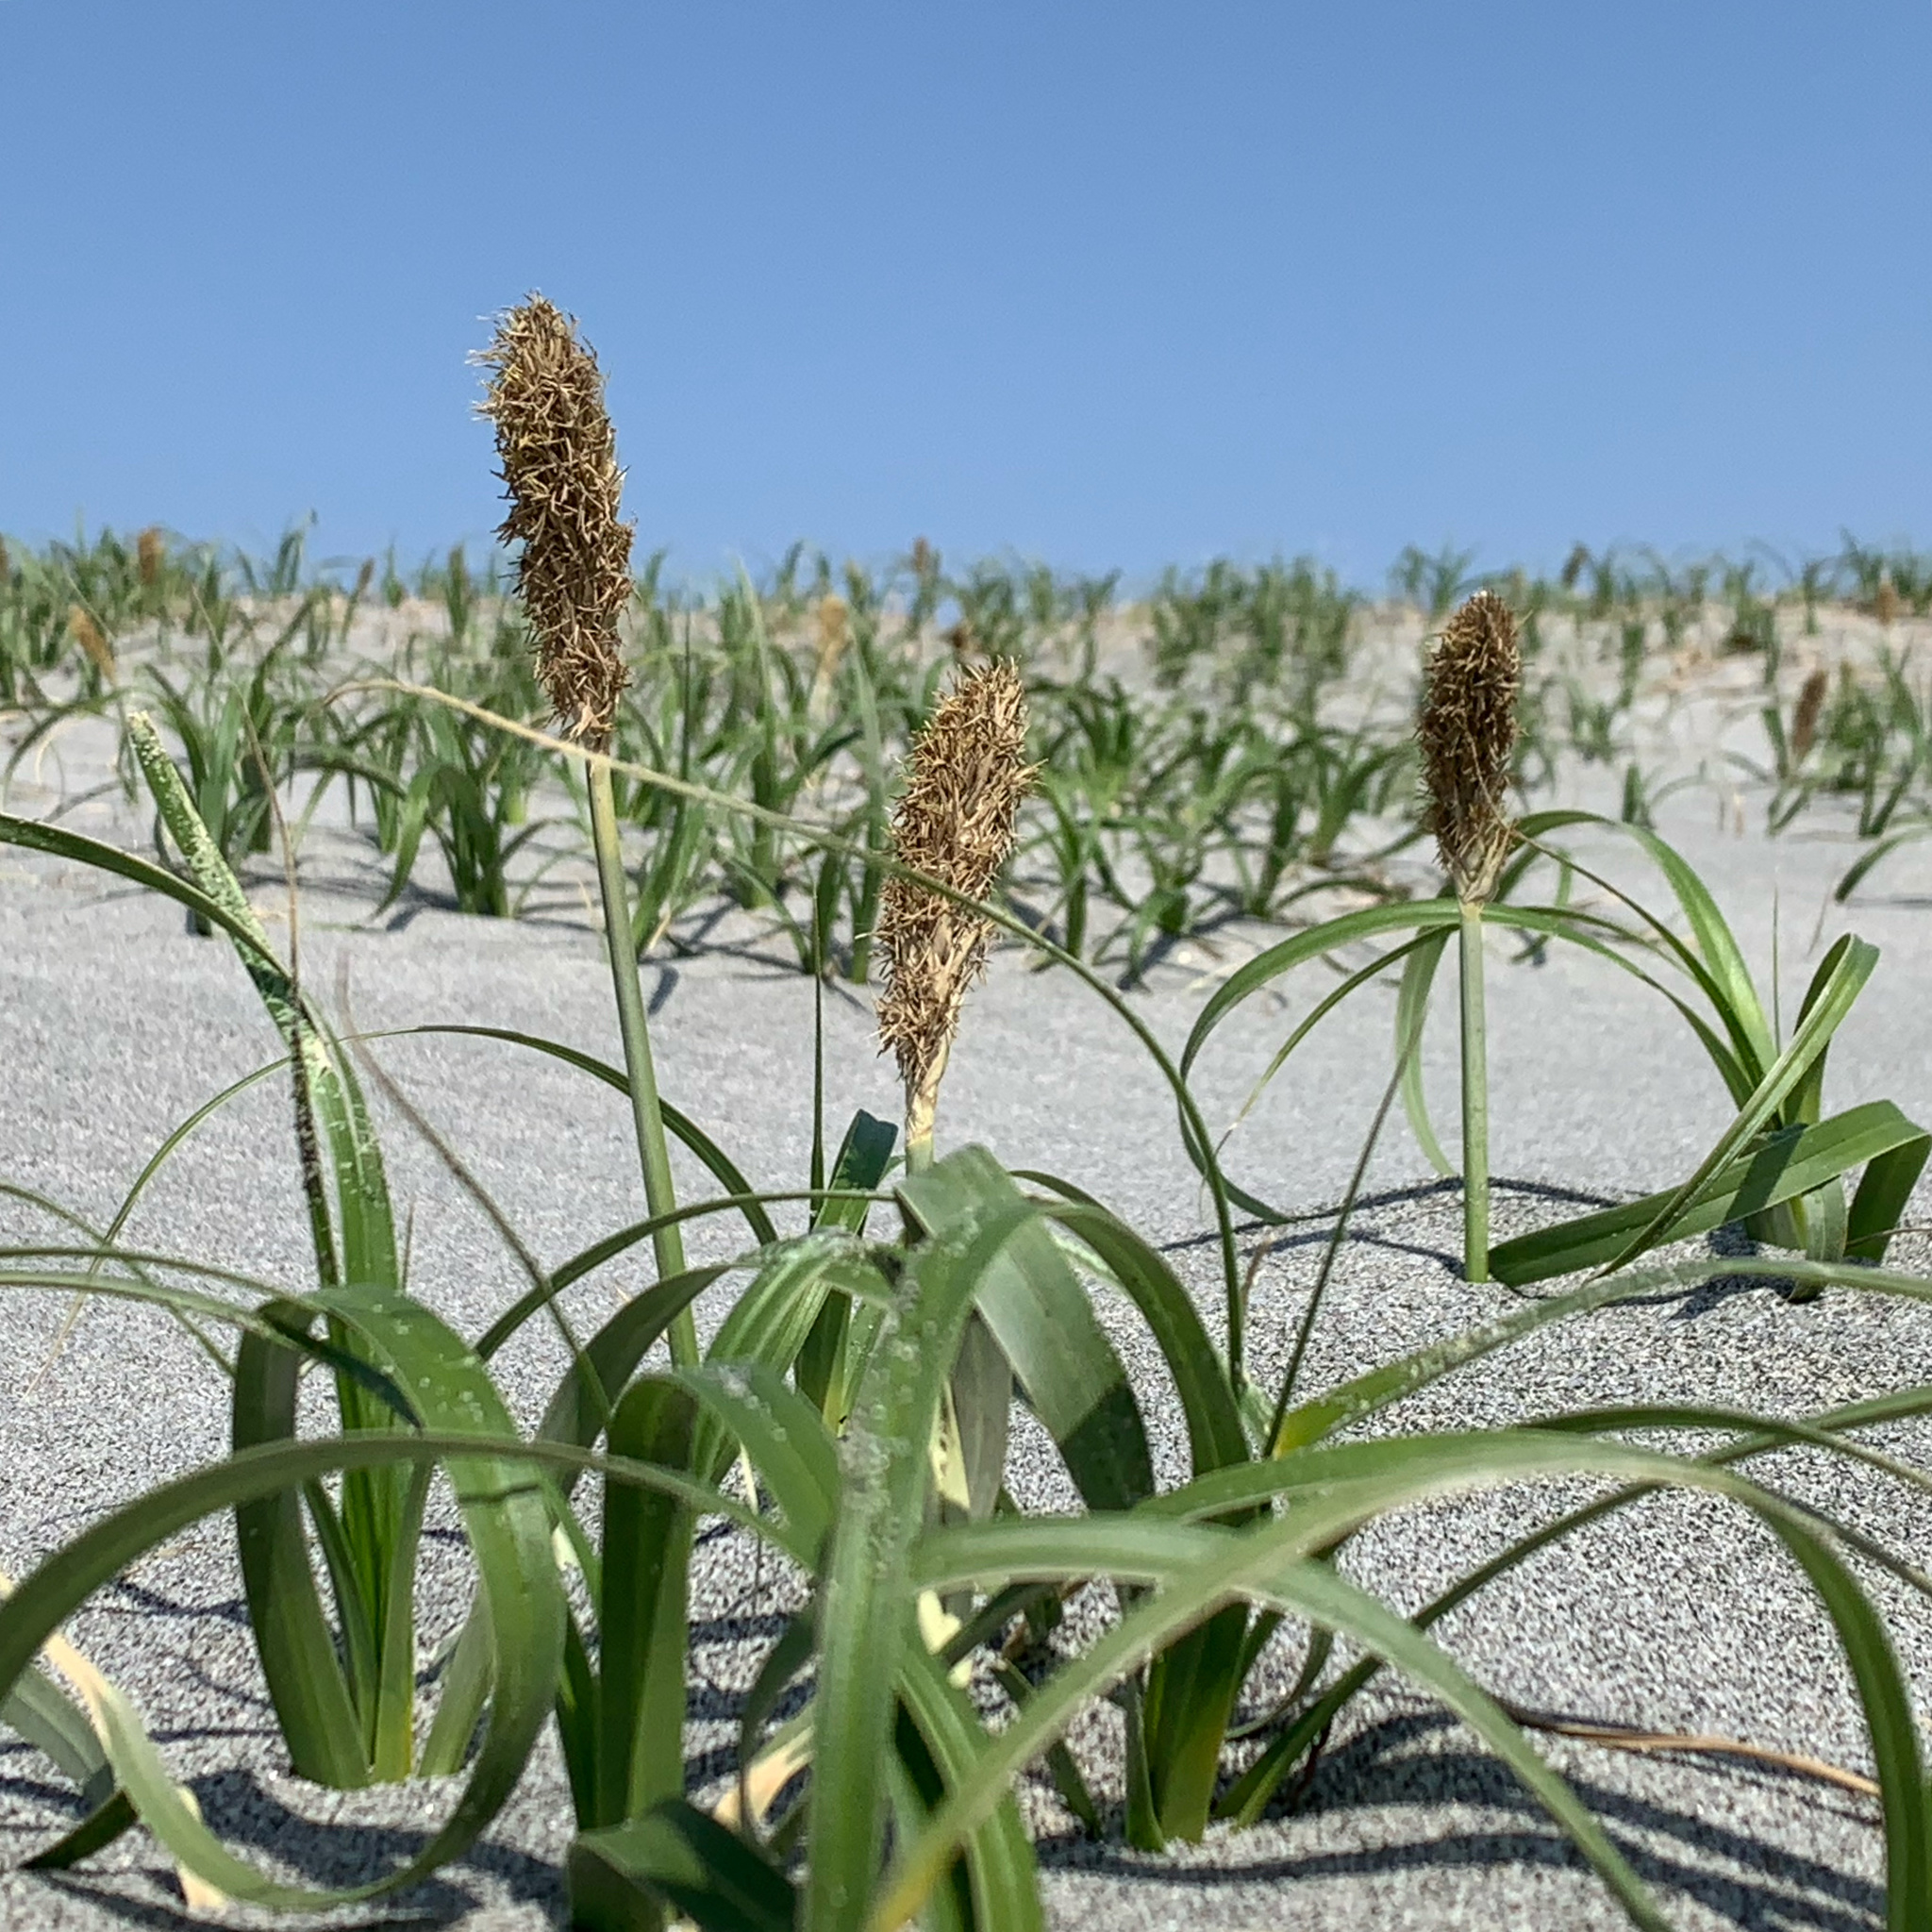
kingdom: Plantae
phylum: Tracheophyta
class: Liliopsida
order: Poales
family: Cyperaceae
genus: Carex
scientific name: Carex kobomugi
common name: Japanese sedge
